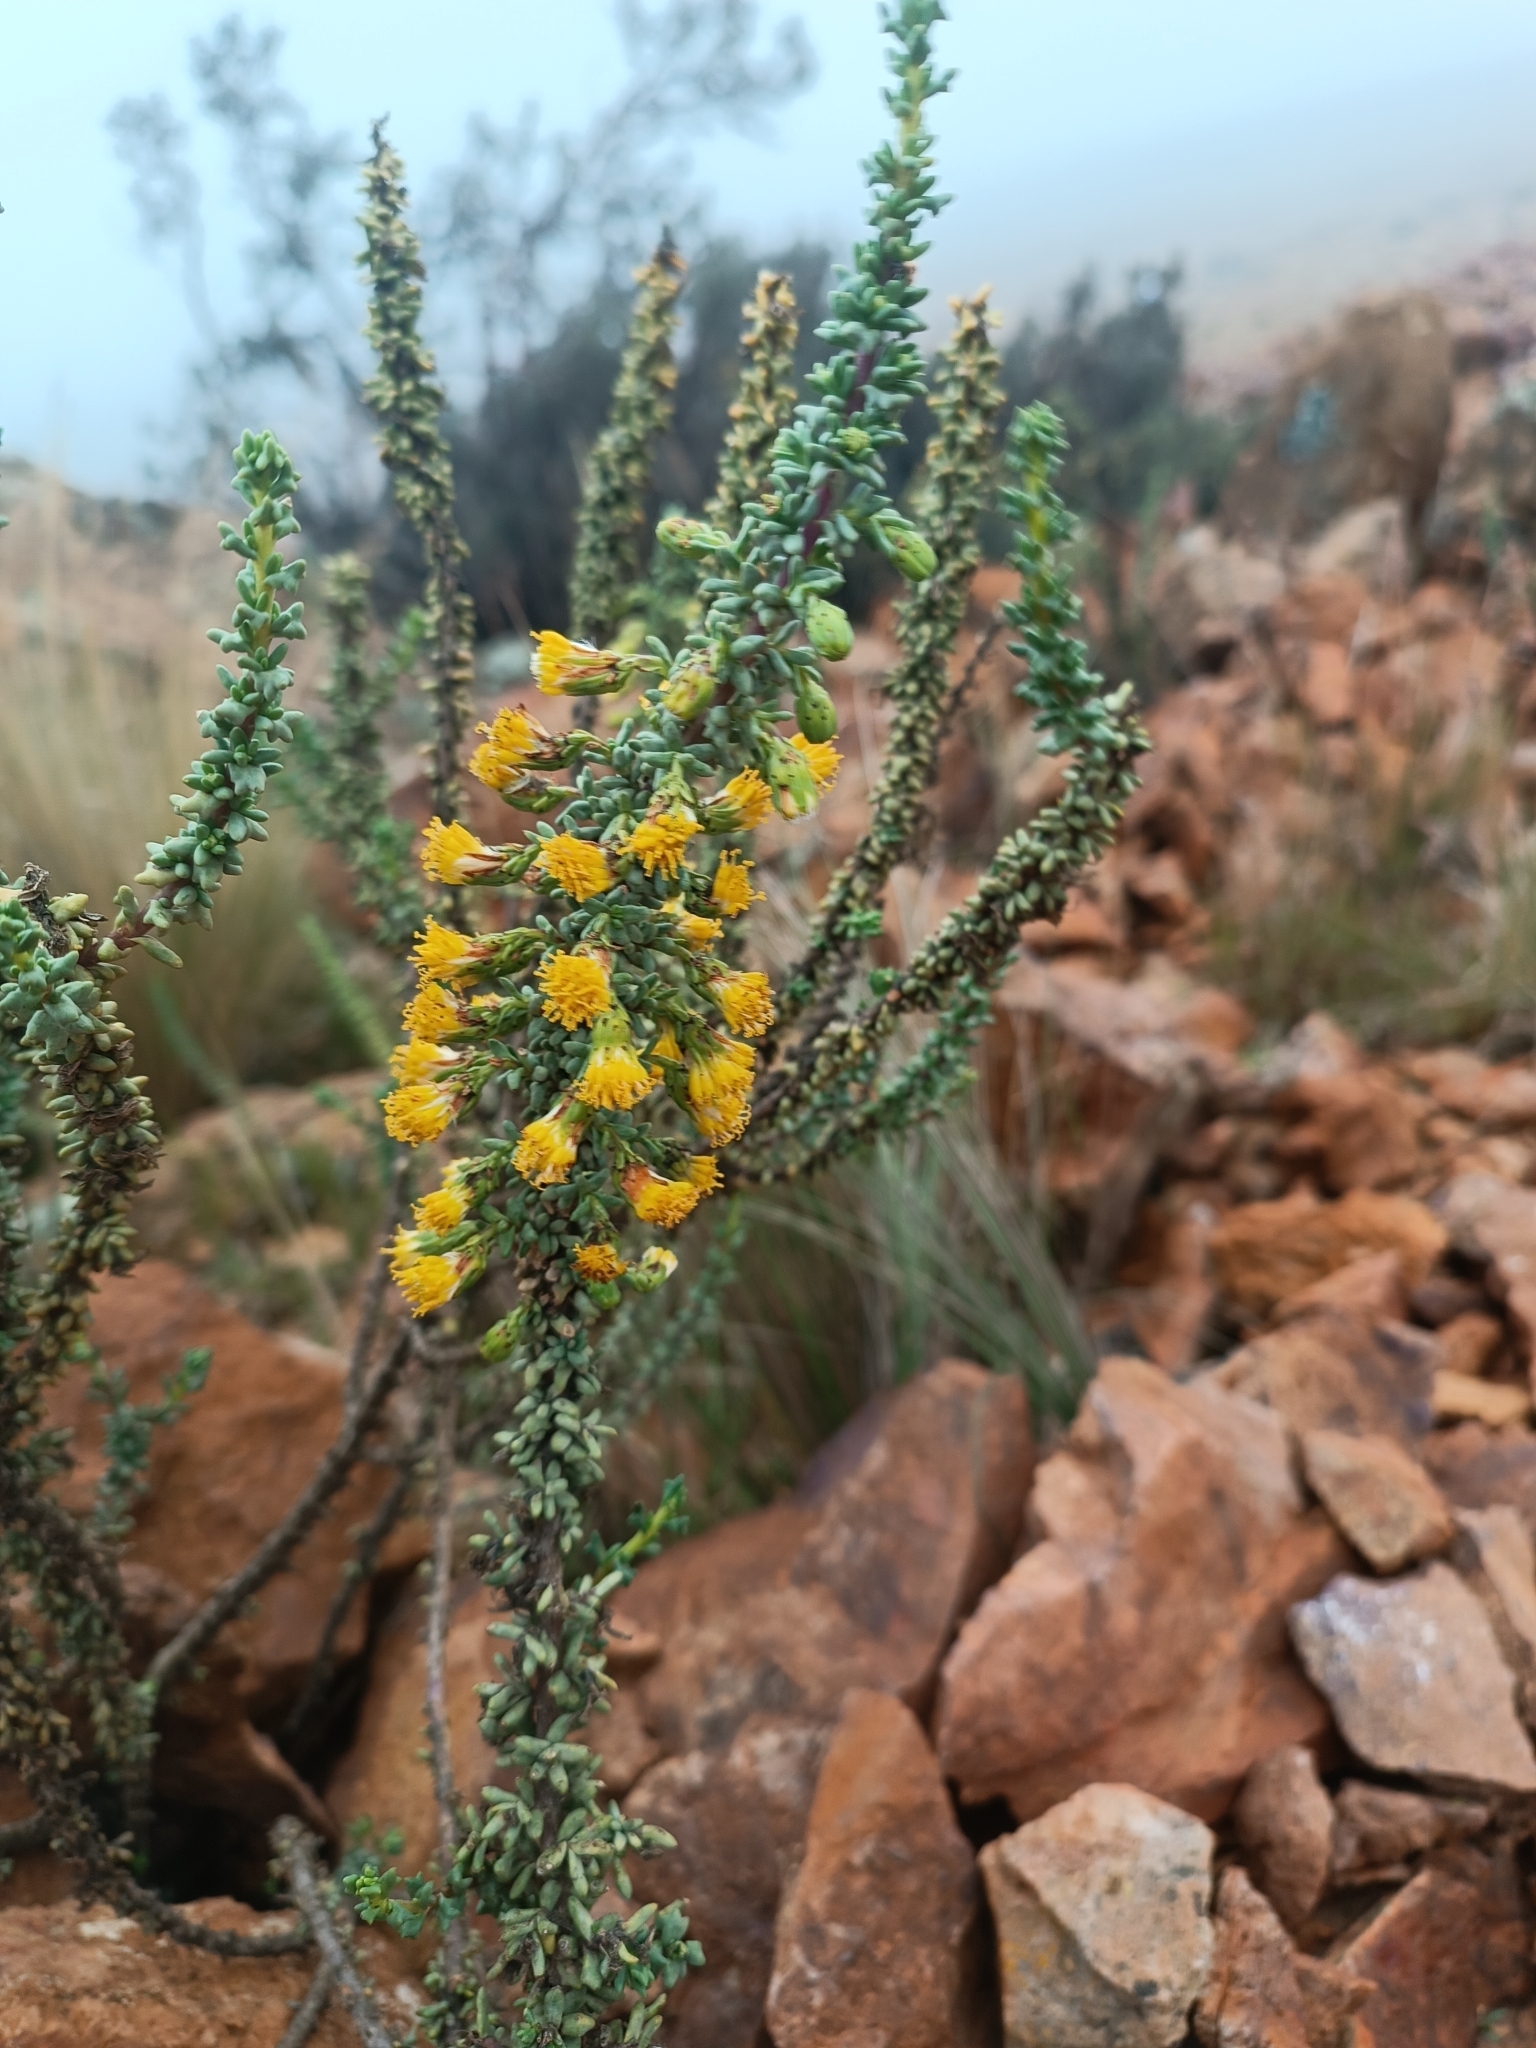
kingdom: Plantae
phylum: Tracheophyta
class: Magnoliopsida
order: Asterales
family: Asteraceae
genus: Senecio
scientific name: Senecio nutans
